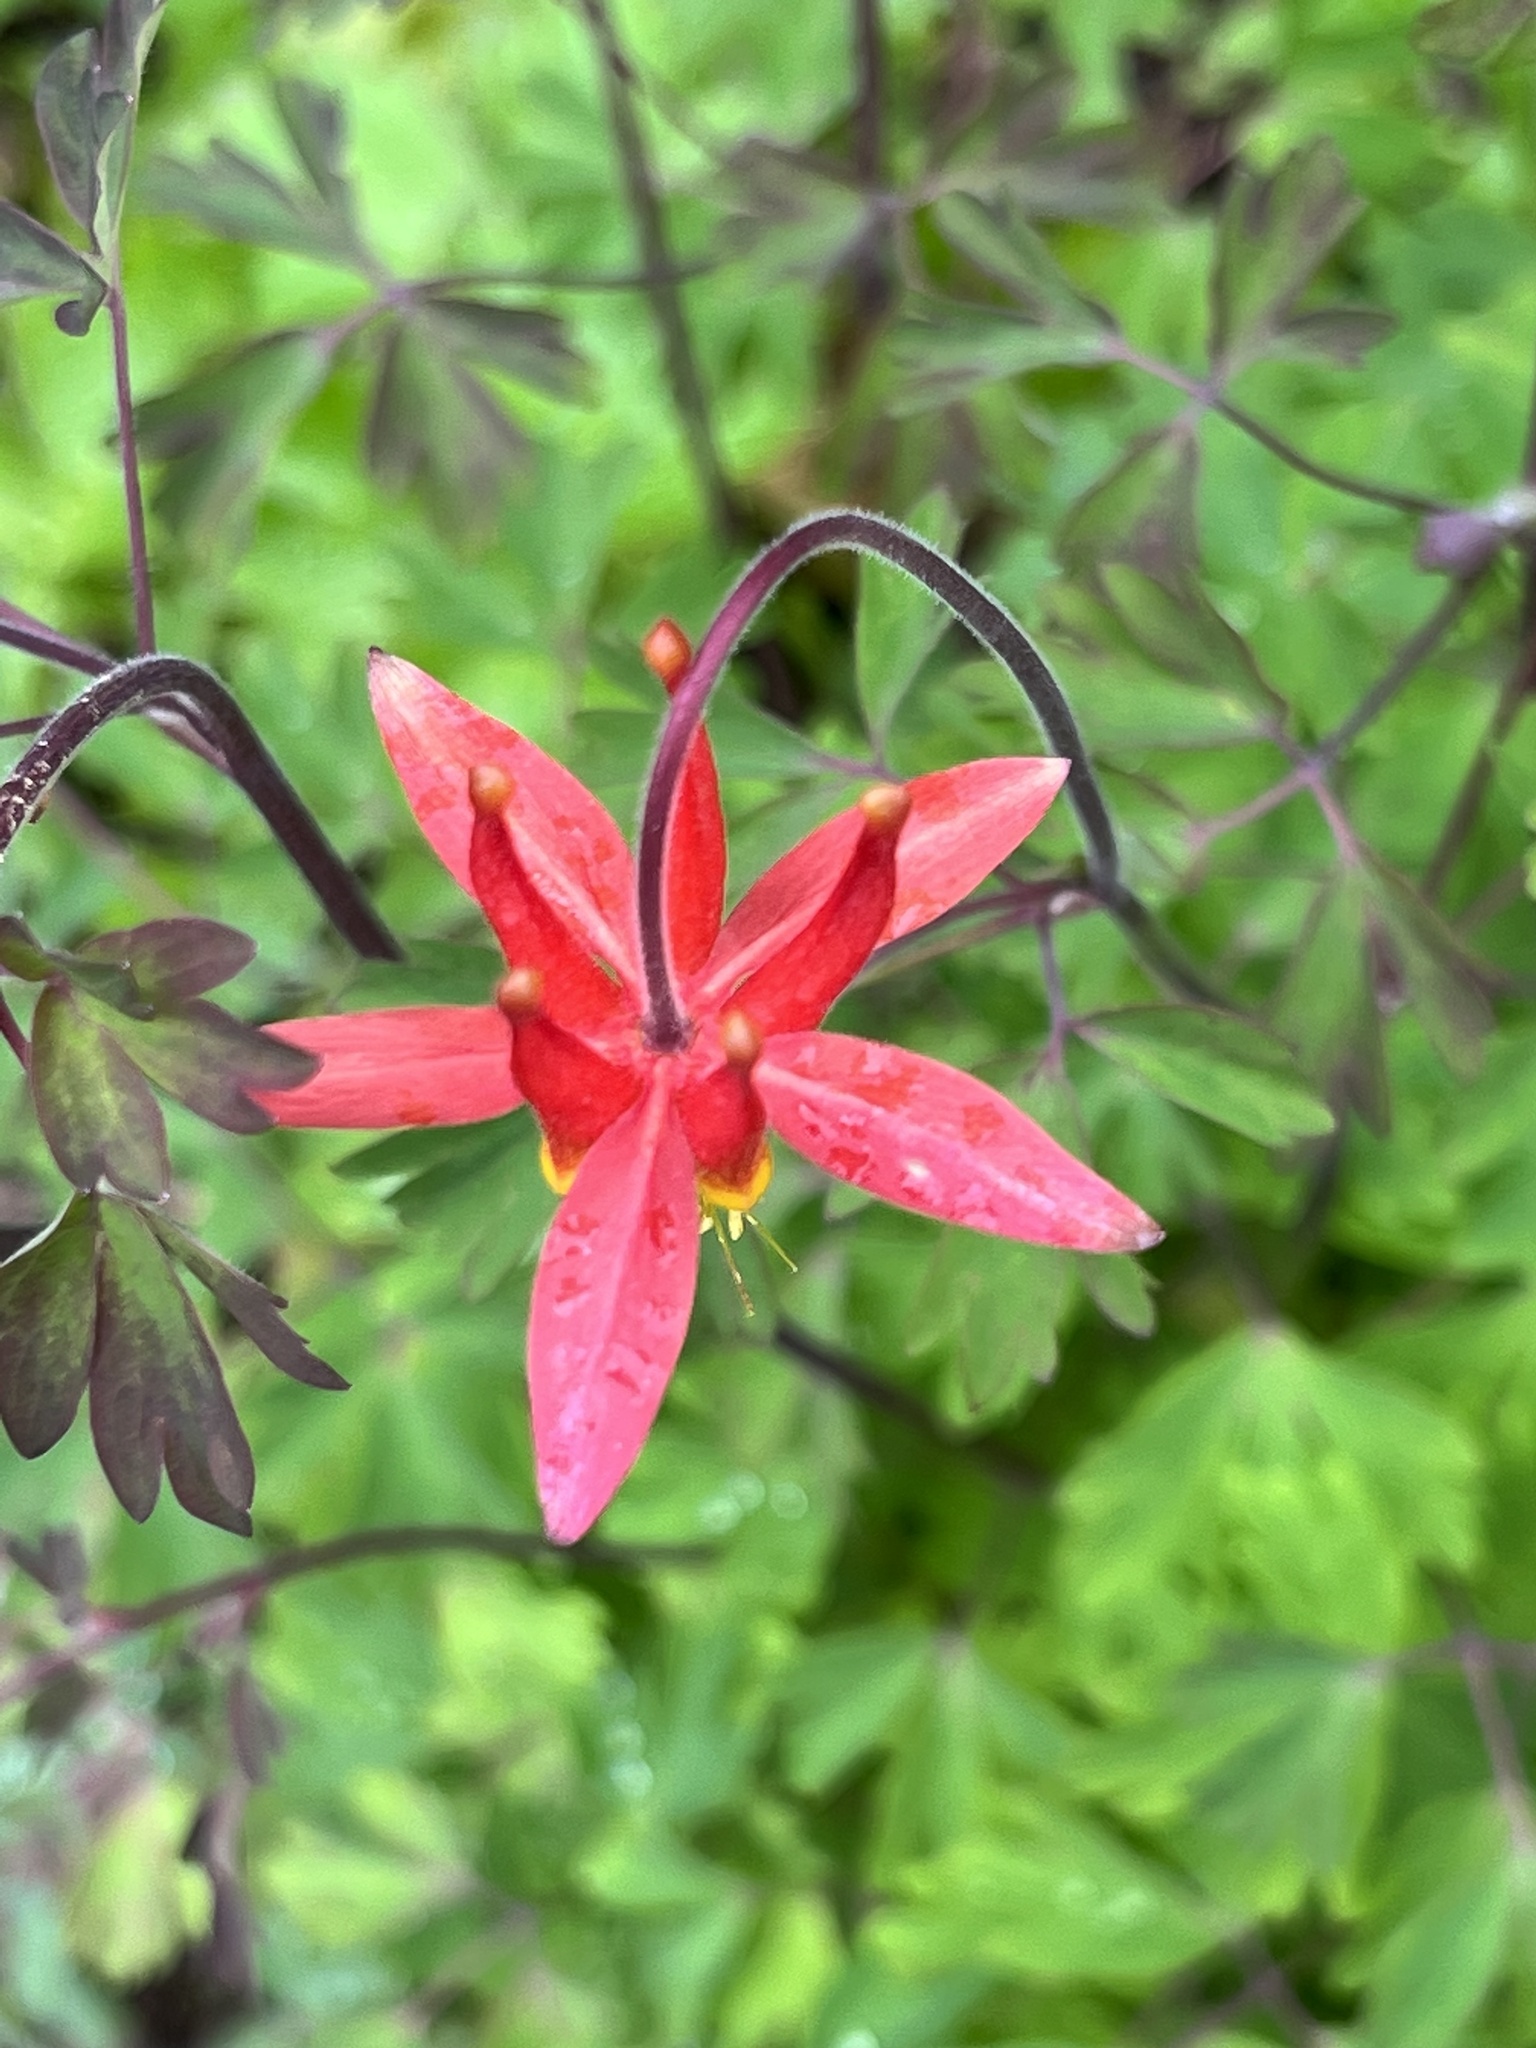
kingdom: Plantae
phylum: Tracheophyta
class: Magnoliopsida
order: Ranunculales
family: Ranunculaceae
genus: Aquilegia
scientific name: Aquilegia formosa
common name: Sitka columbine
